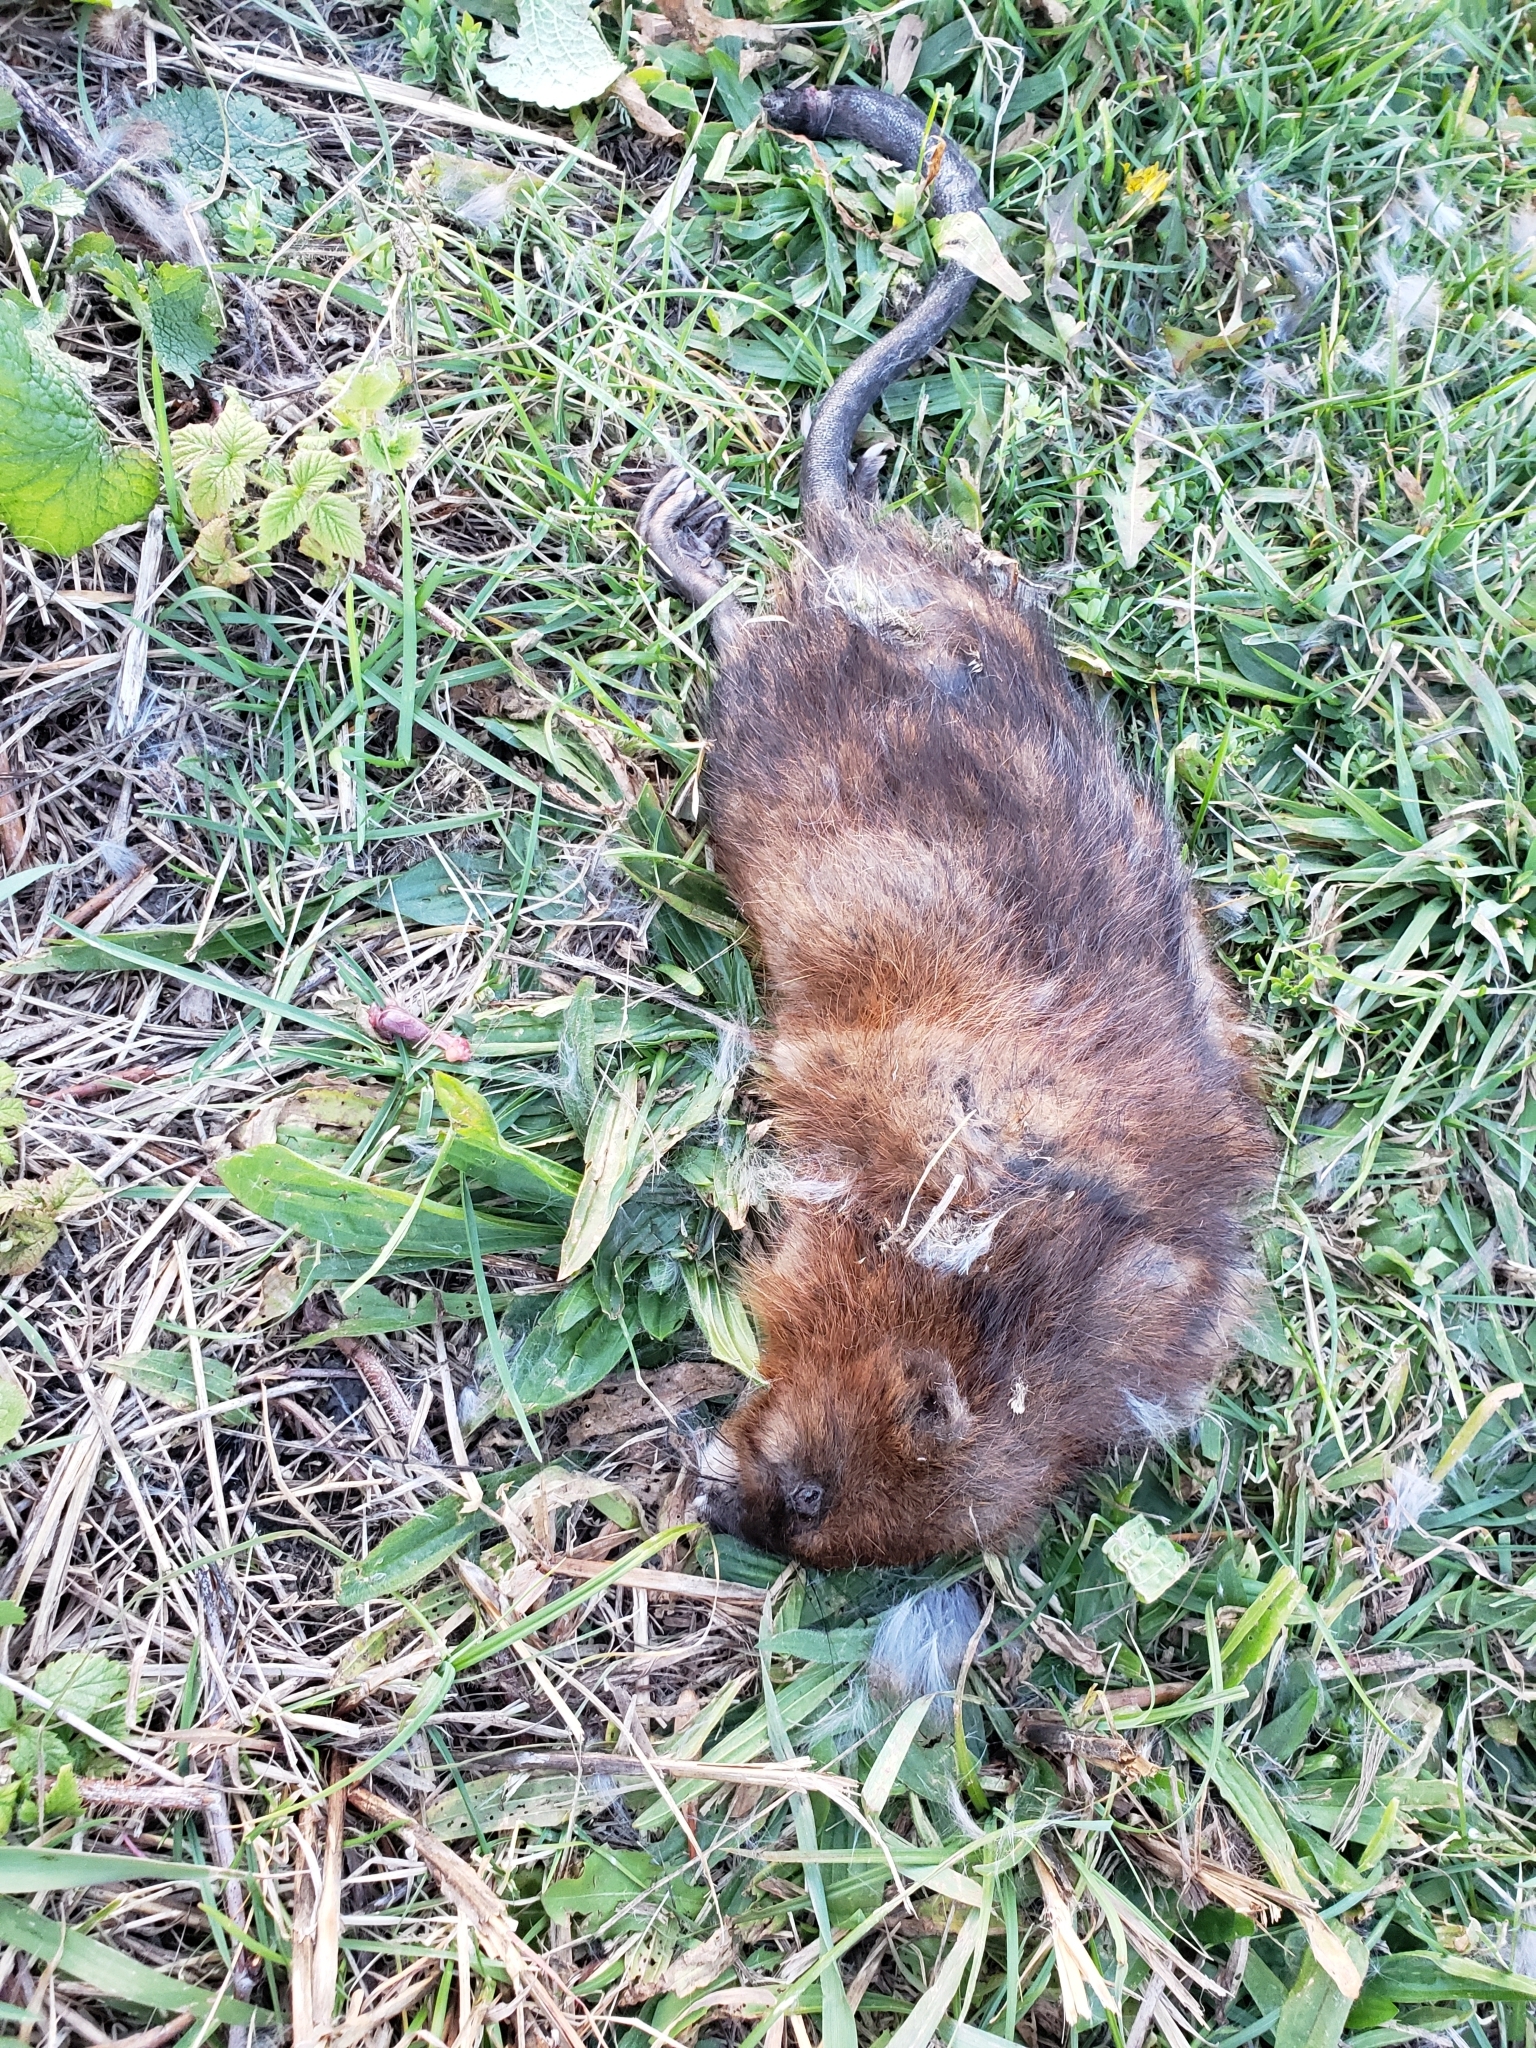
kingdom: Animalia
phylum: Chordata
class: Mammalia
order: Rodentia
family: Cricetidae
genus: Ondatra
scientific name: Ondatra zibethicus
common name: Muskrat
